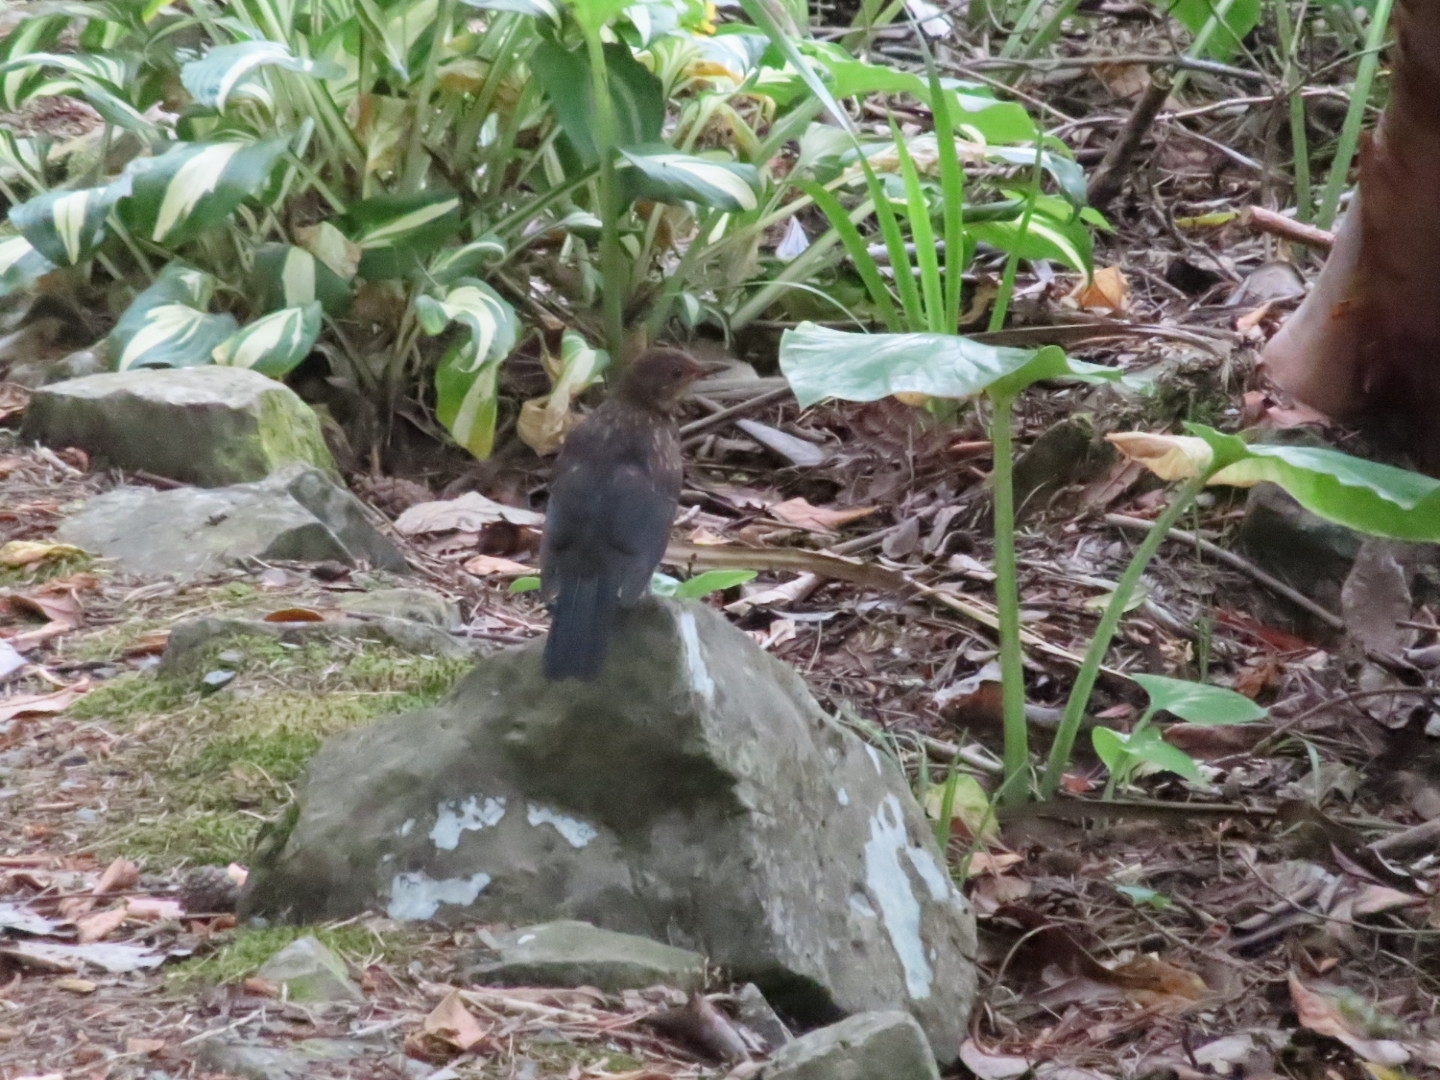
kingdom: Animalia
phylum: Chordata
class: Aves
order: Passeriformes
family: Turdidae
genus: Turdus
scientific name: Turdus merula
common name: Common blackbird
